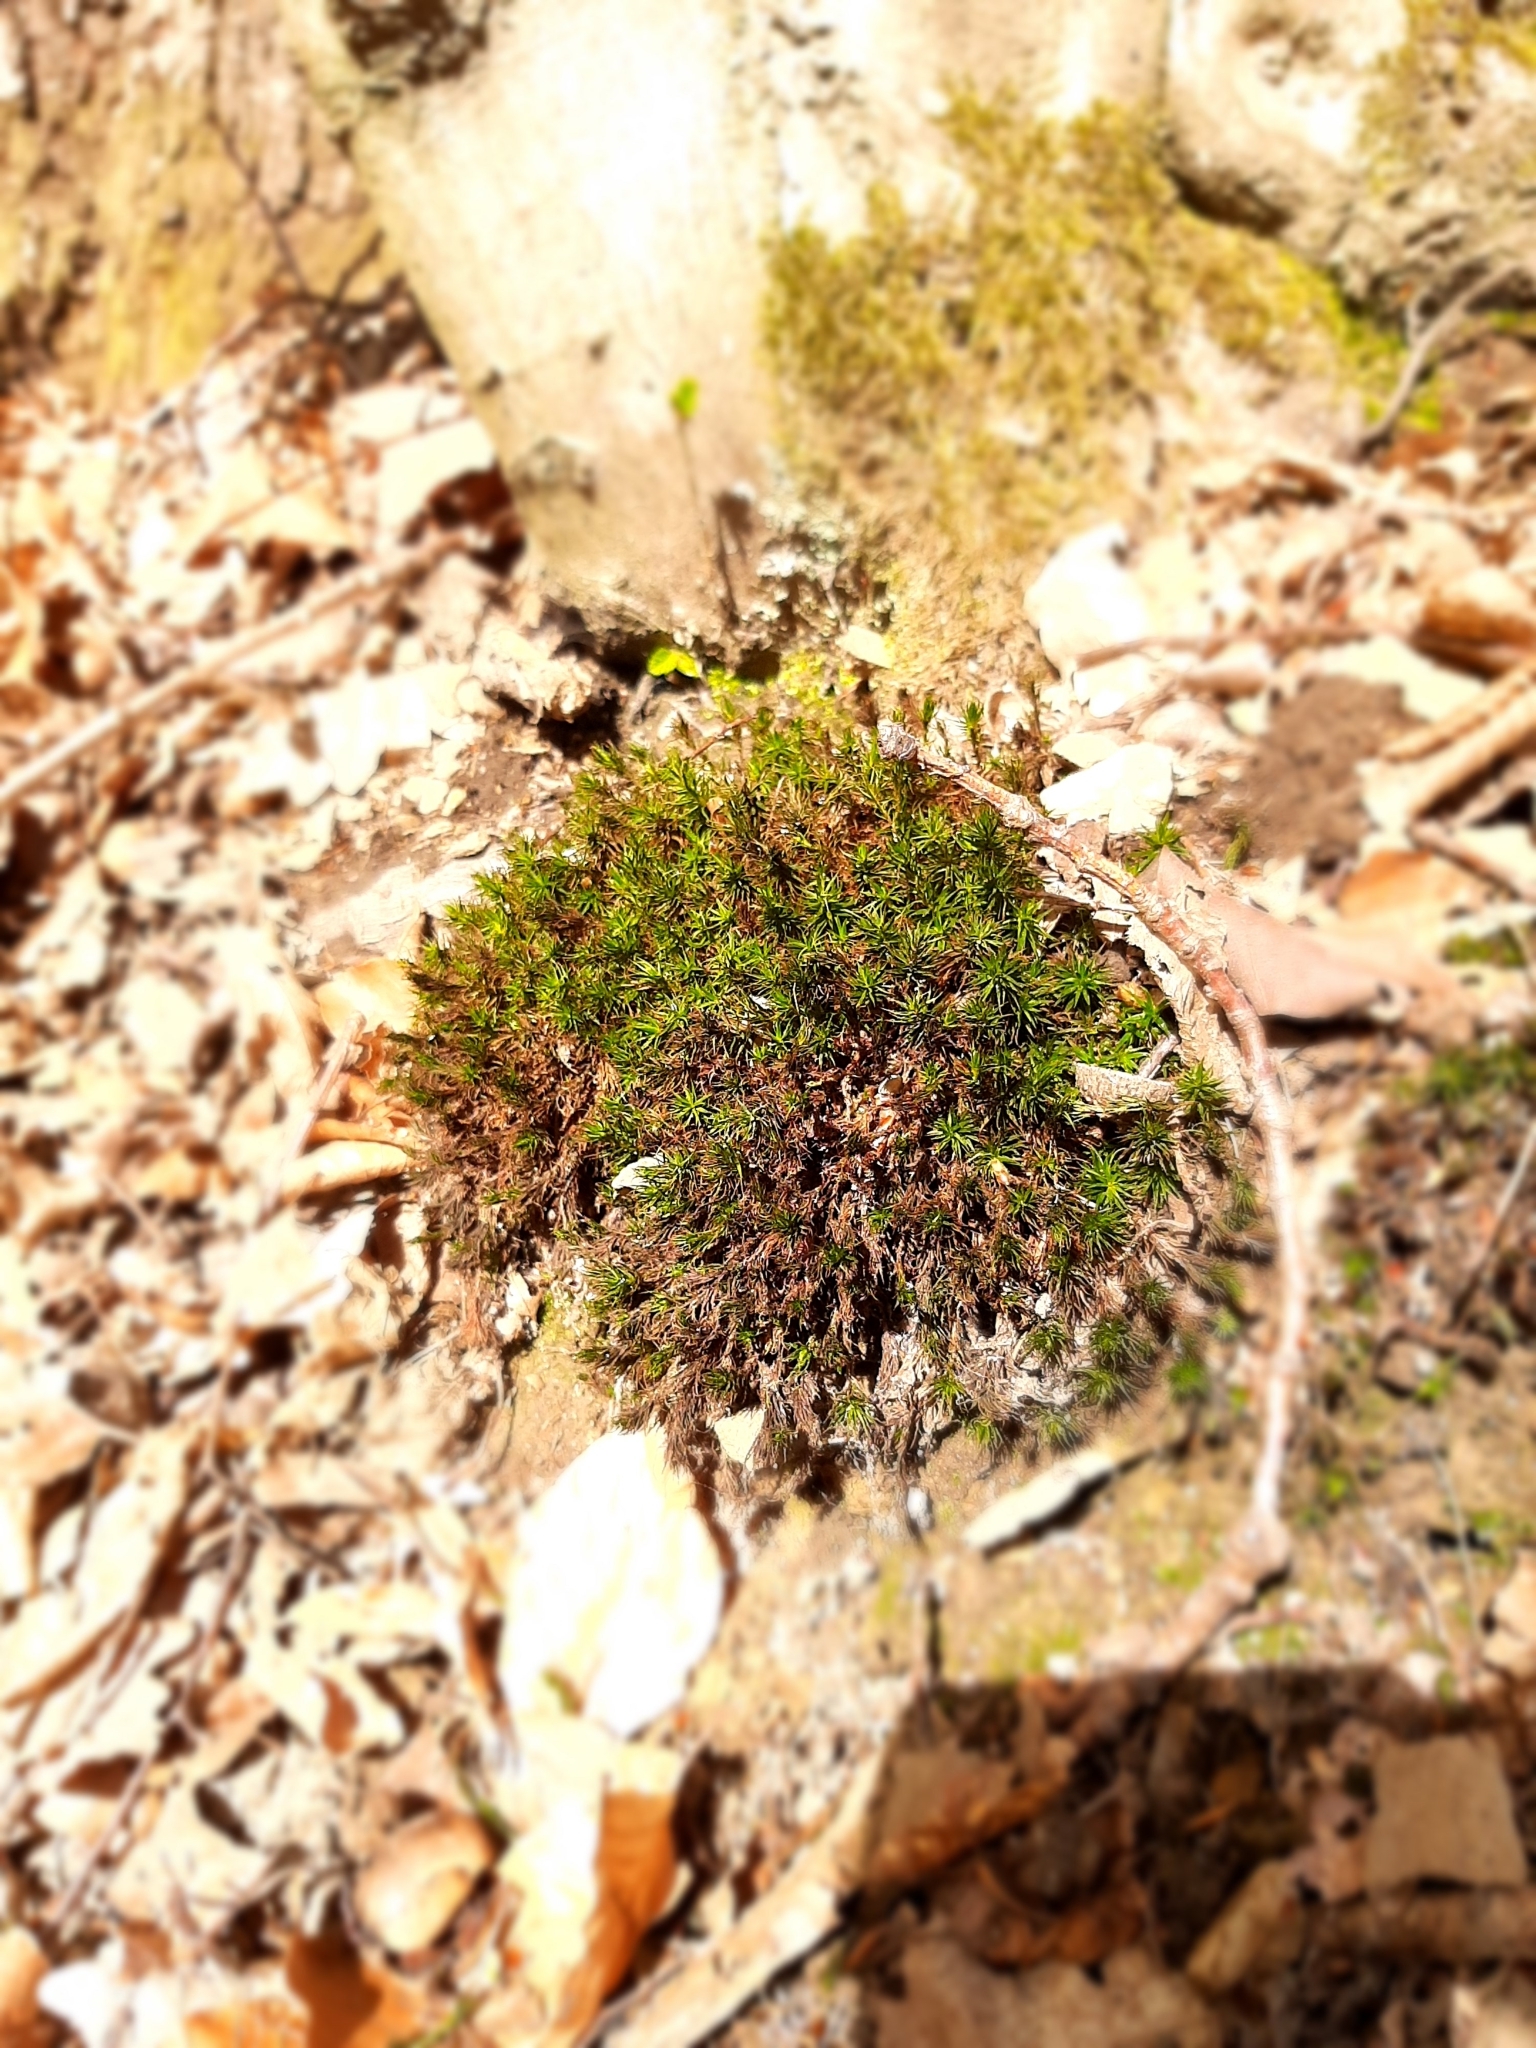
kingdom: Plantae
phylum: Bryophyta
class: Polytrichopsida
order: Polytrichales
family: Polytrichaceae
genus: Polytrichum
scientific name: Polytrichum formosum
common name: Bank haircap moss
